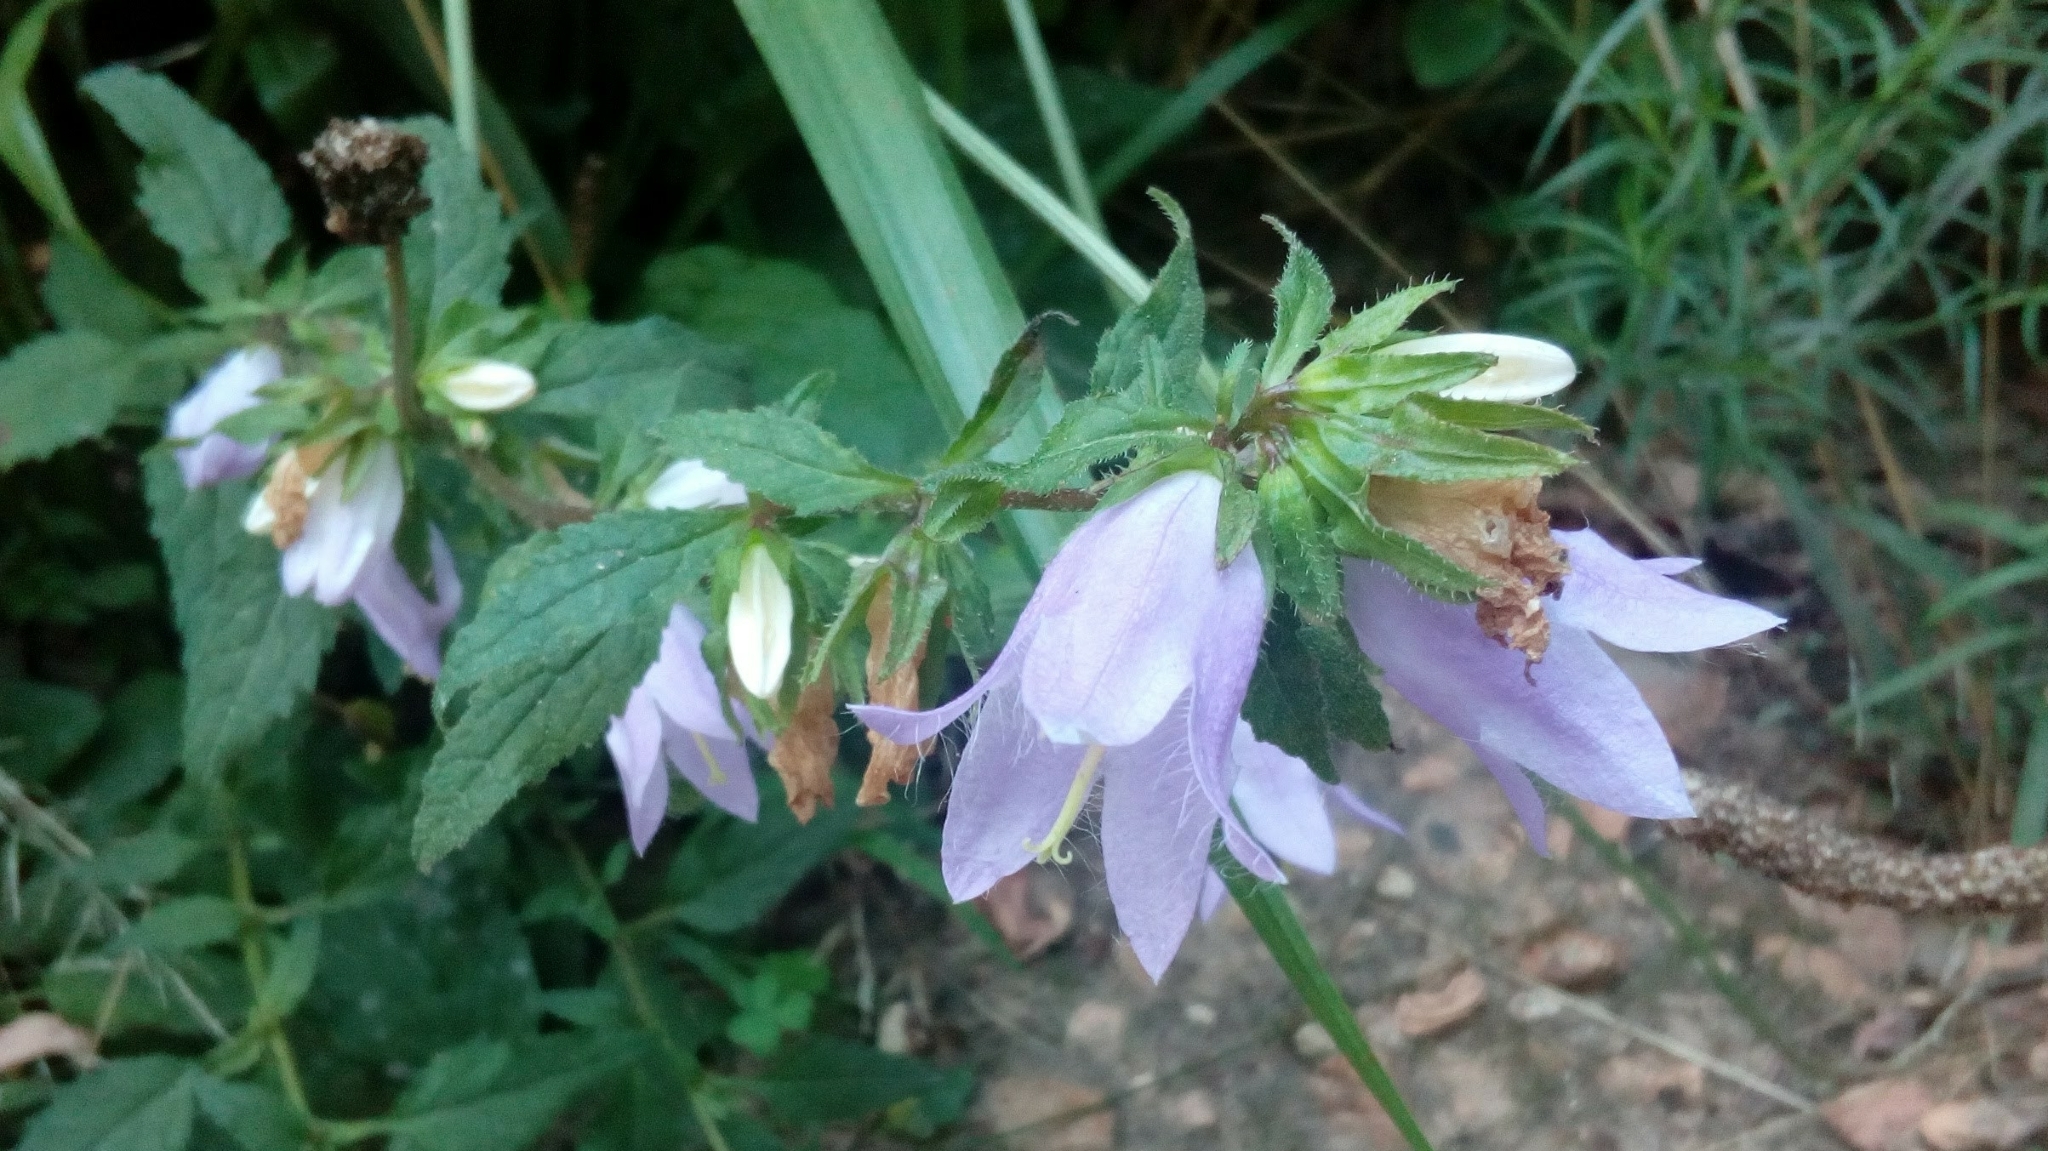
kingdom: Plantae
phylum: Tracheophyta
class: Magnoliopsida
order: Asterales
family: Campanulaceae
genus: Campanula
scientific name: Campanula trachelium
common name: Nettle-leaved bellflower
